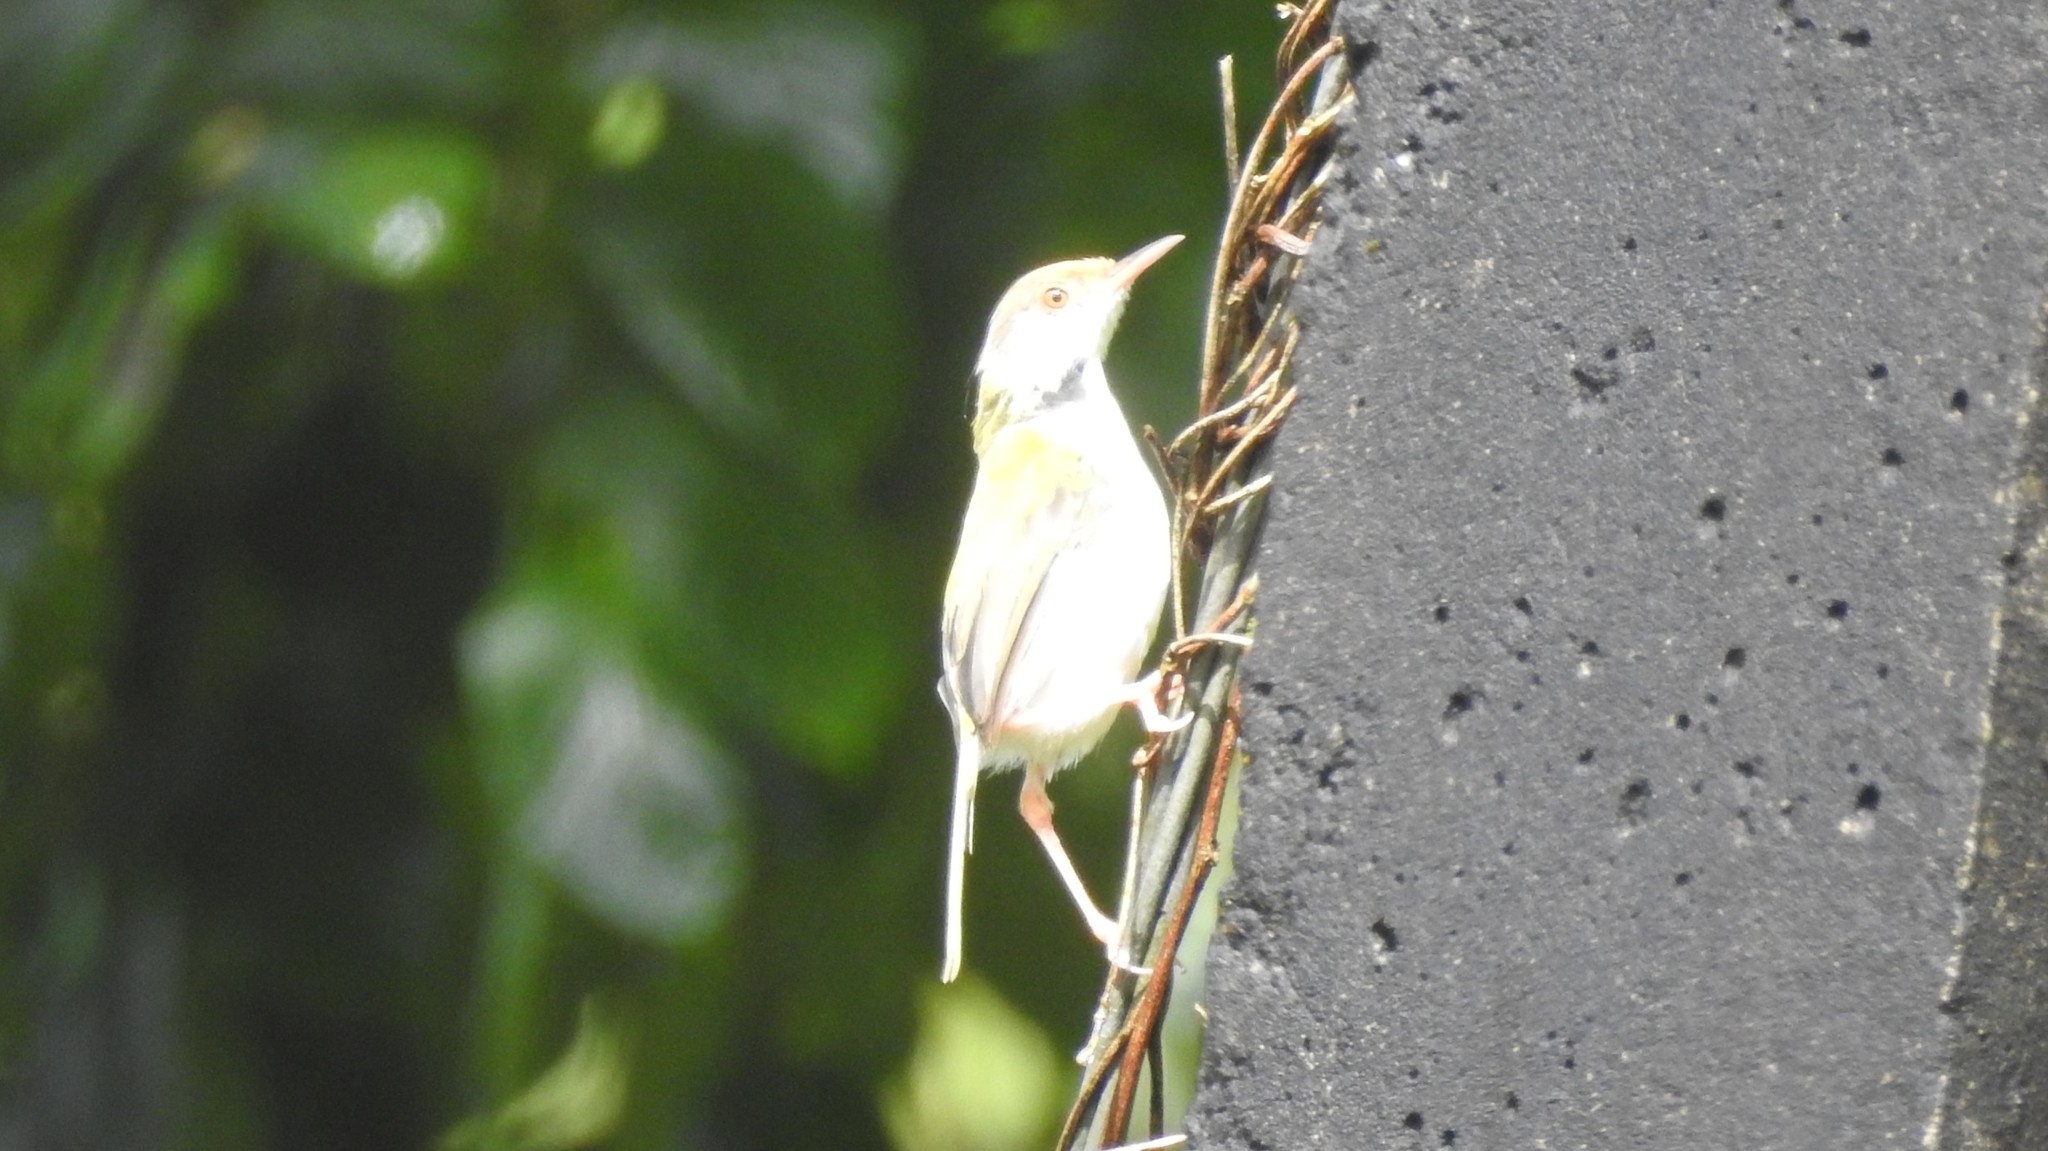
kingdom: Animalia
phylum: Chordata
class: Aves
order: Passeriformes
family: Cisticolidae
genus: Orthotomus
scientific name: Orthotomus sutorius
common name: Common tailorbird
